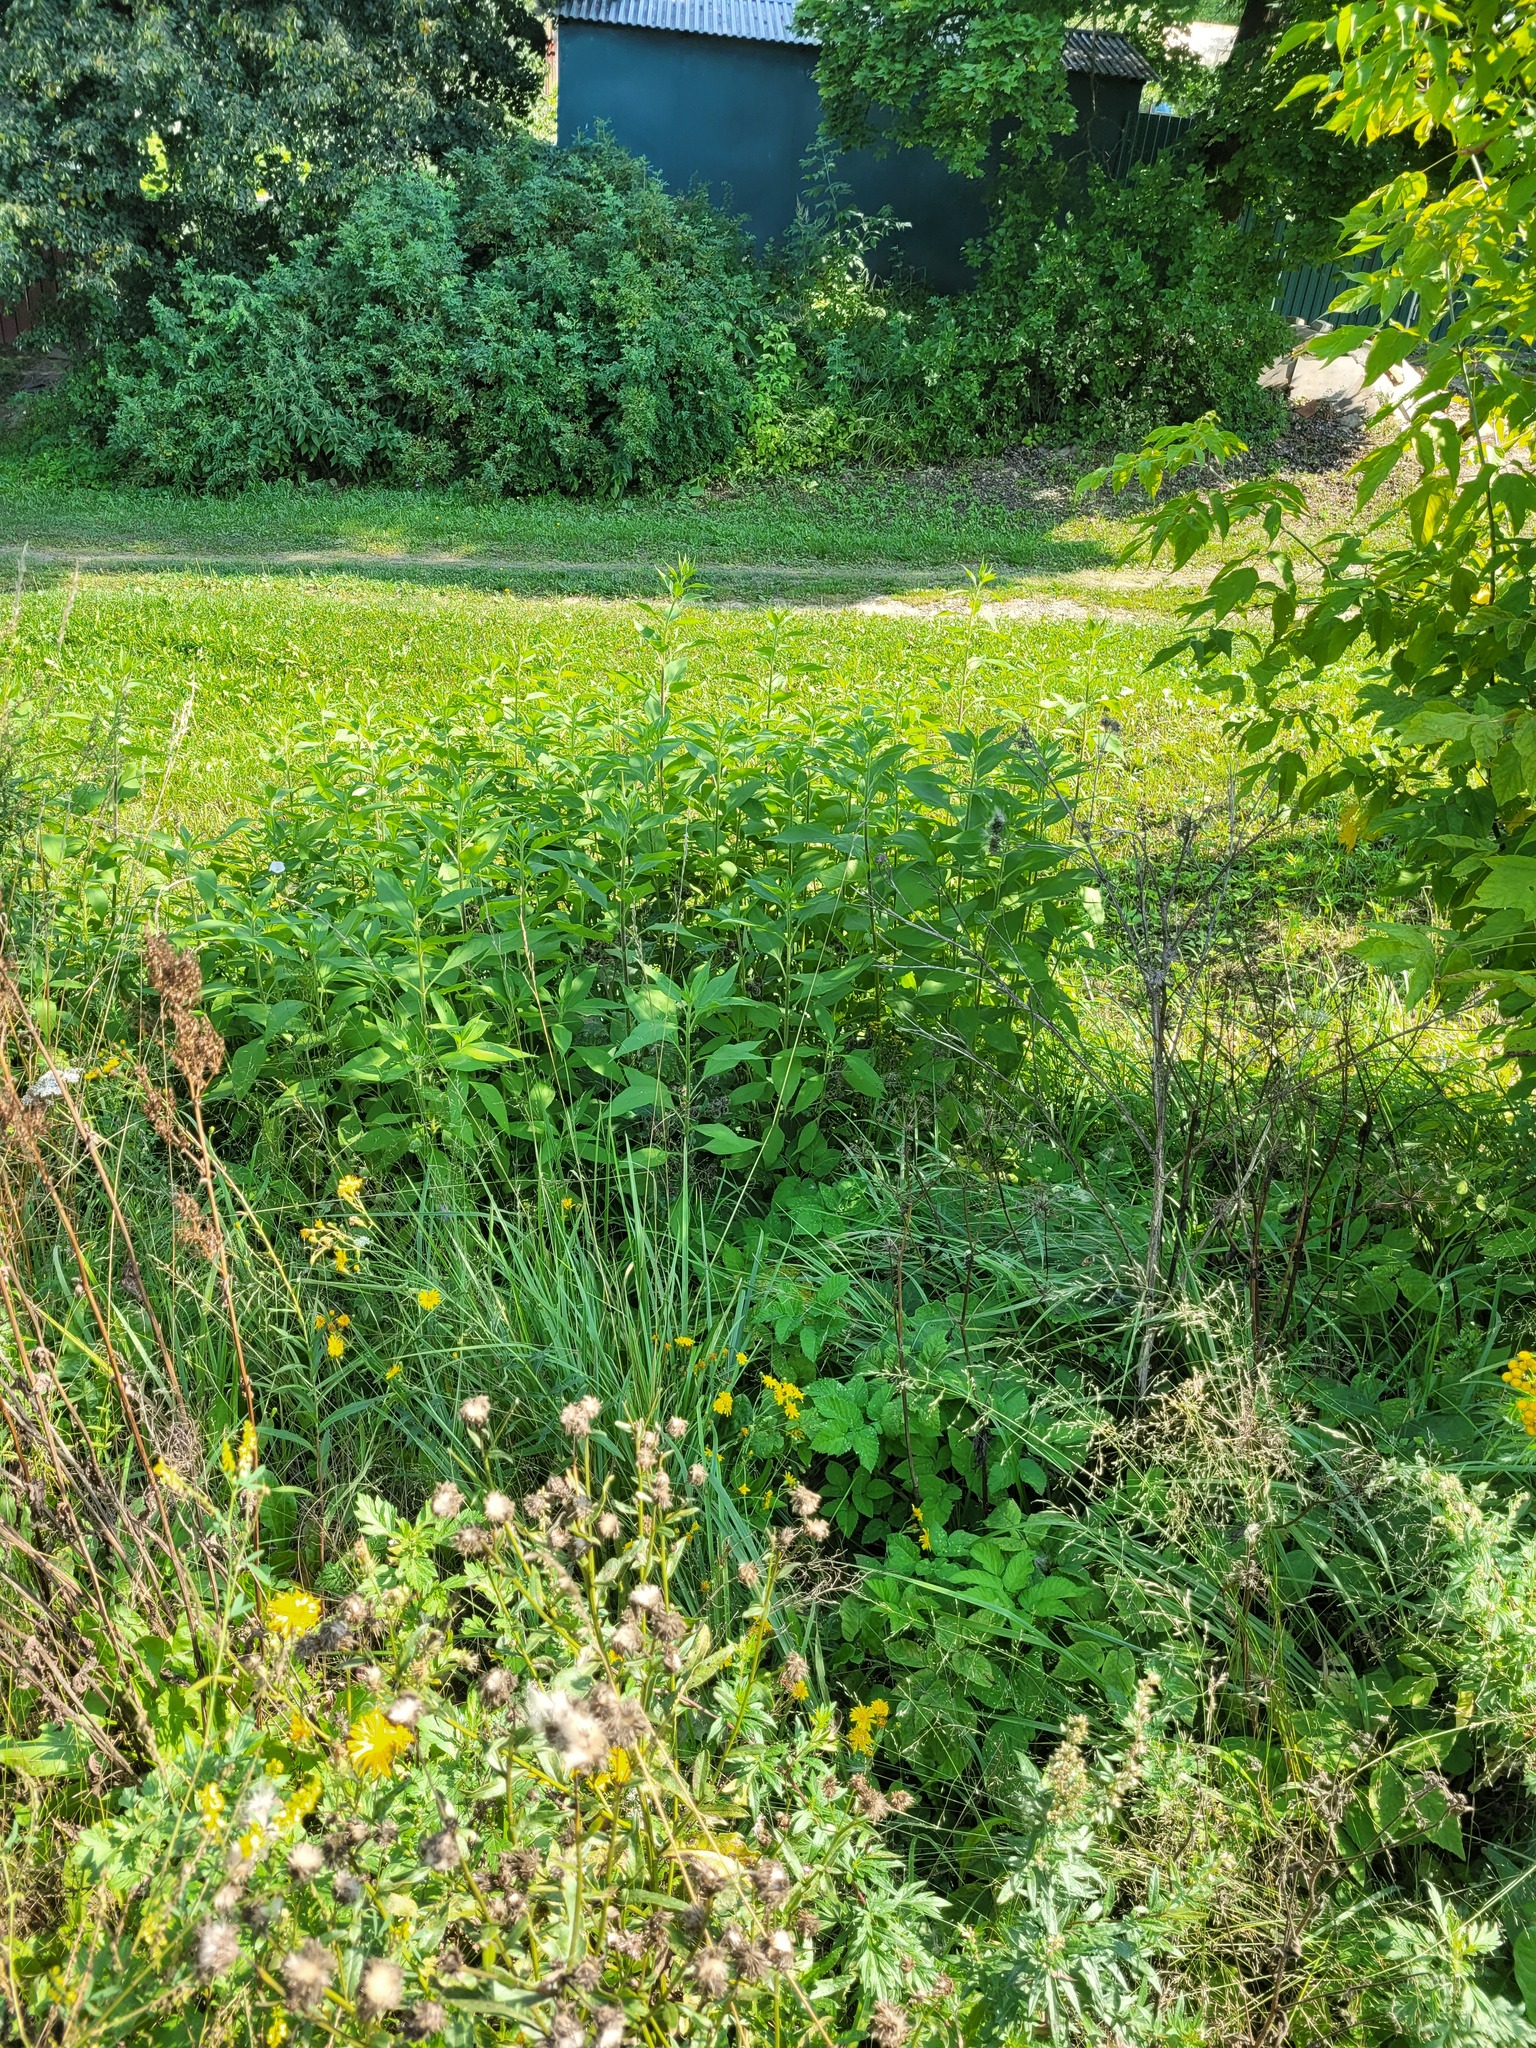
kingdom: Plantae
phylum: Tracheophyta
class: Magnoliopsida
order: Asterales
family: Asteraceae
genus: Helianthus
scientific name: Helianthus tuberosus
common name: Jerusalem artichoke
